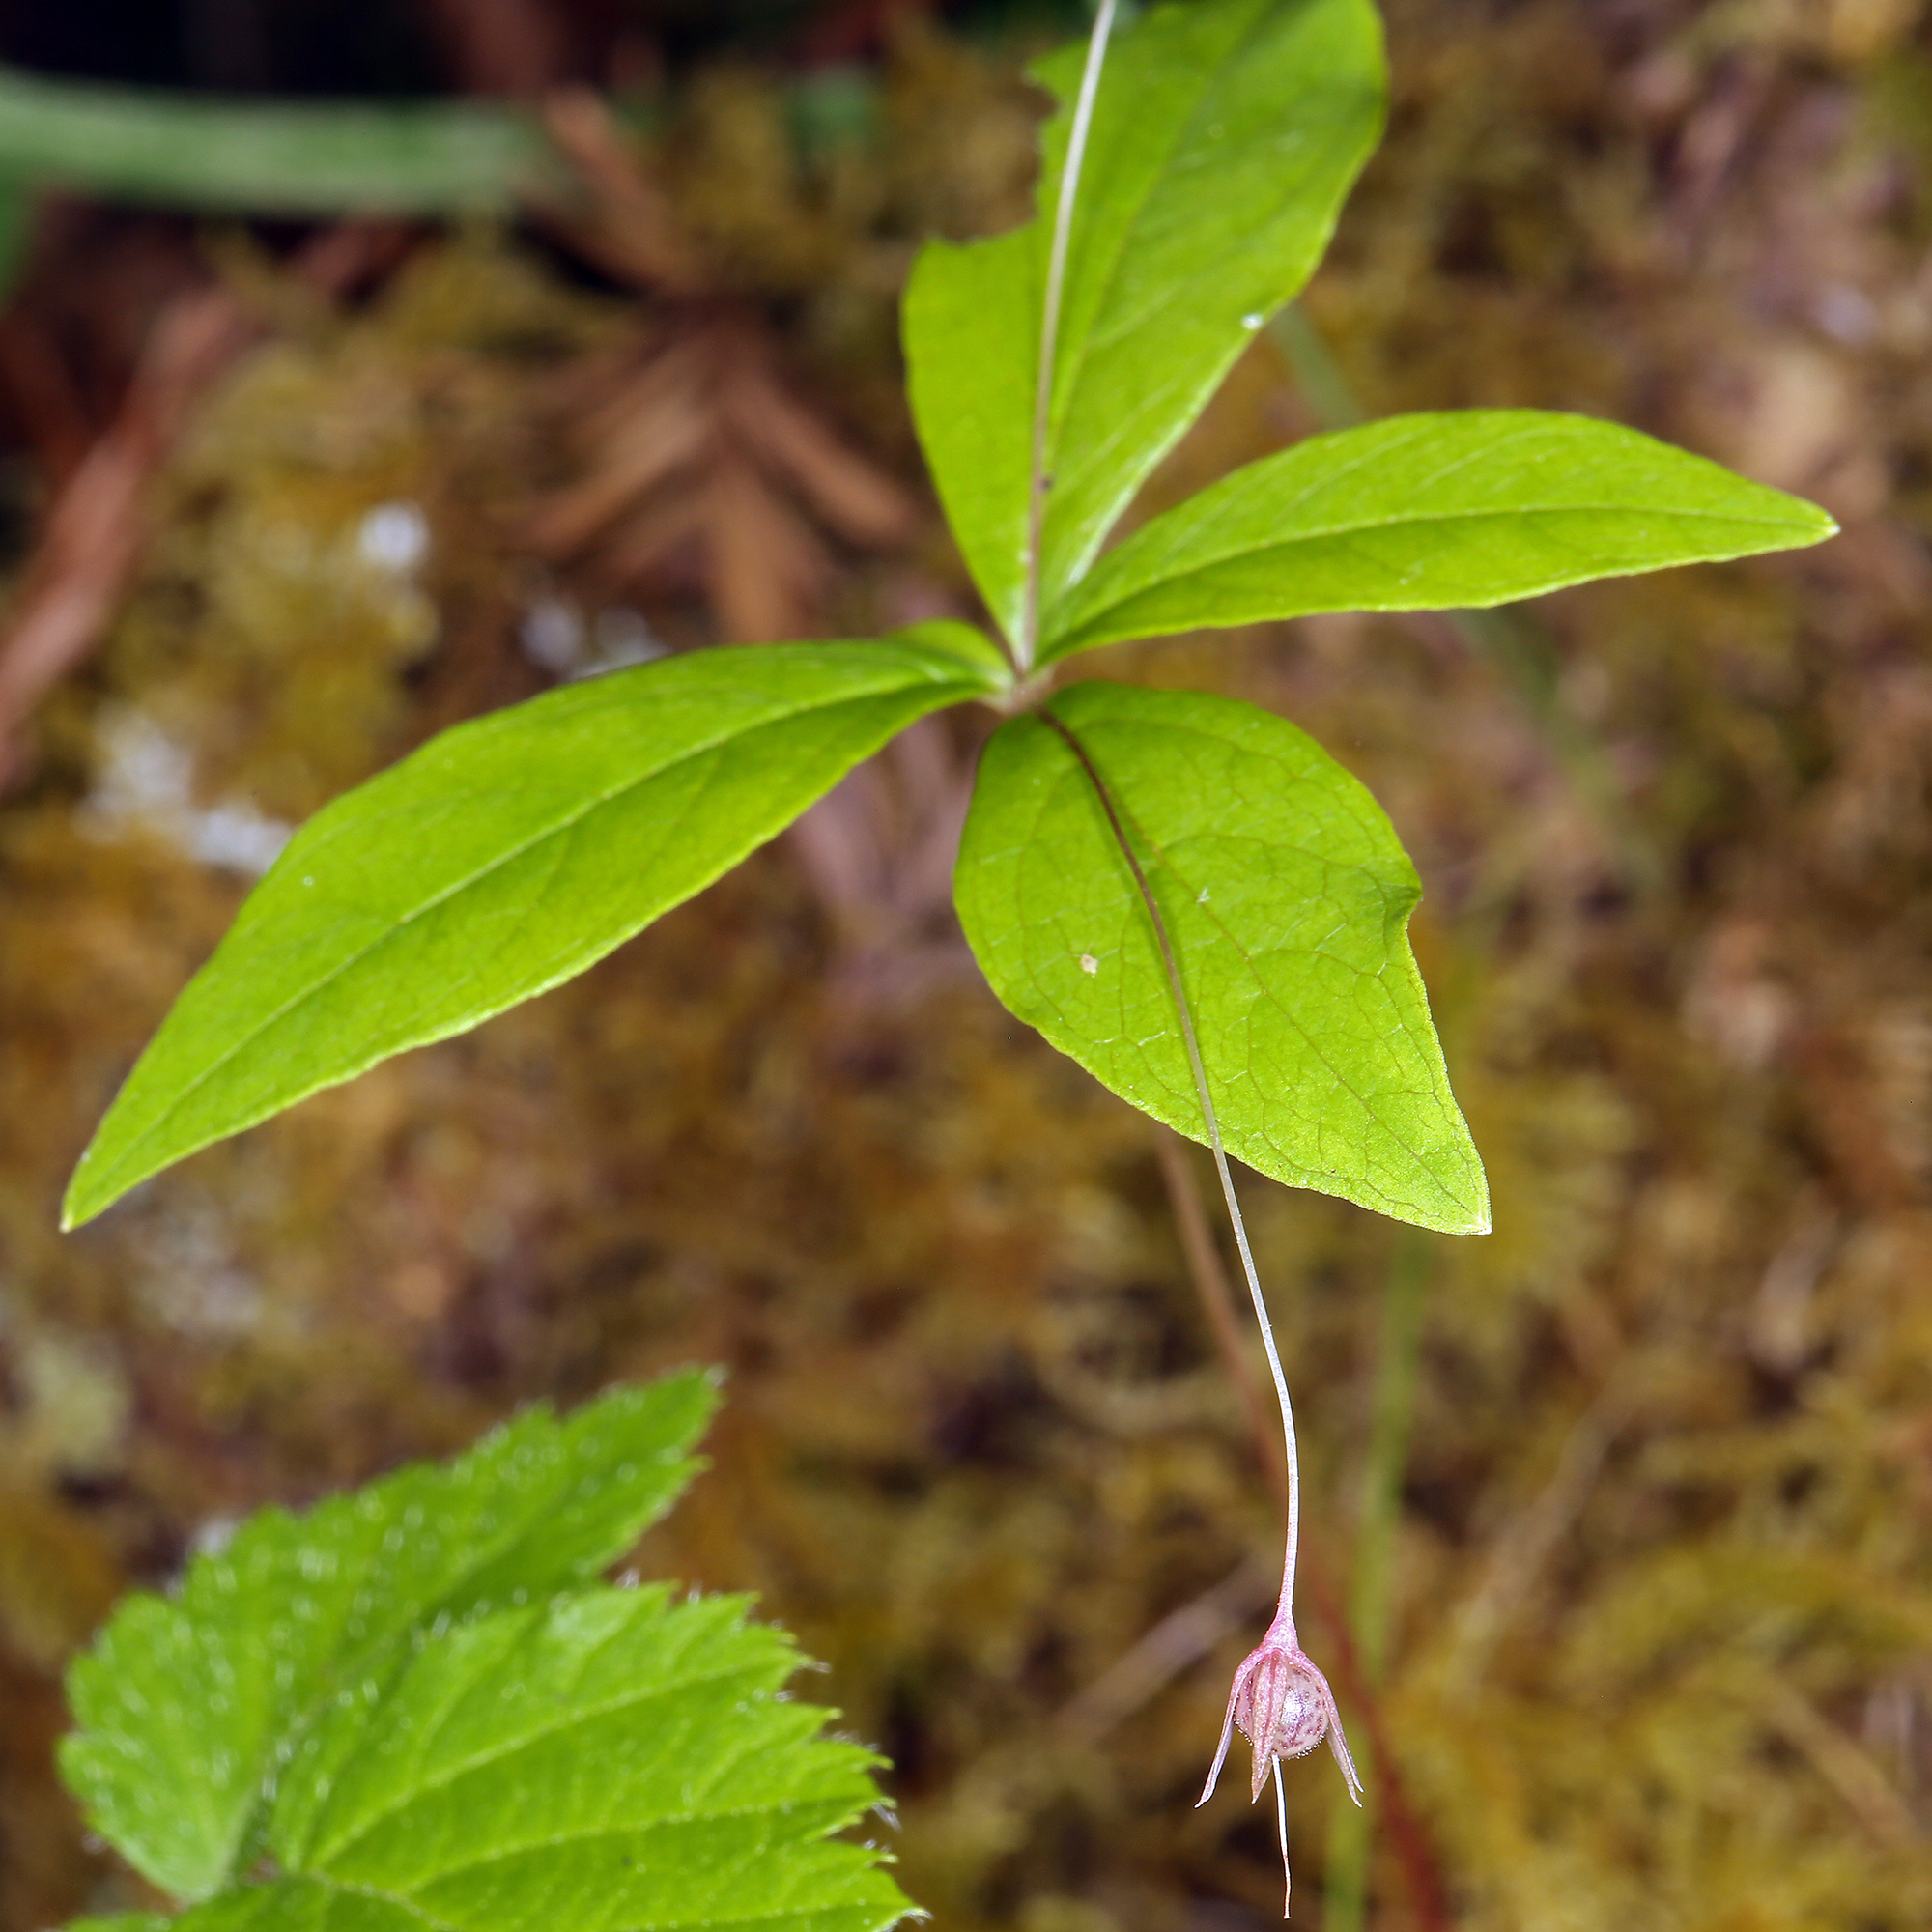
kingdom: Plantae
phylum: Tracheophyta
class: Magnoliopsida
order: Ericales
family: Primulaceae
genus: Lysimachia
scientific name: Lysimachia latifolia
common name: Pacific starflower
